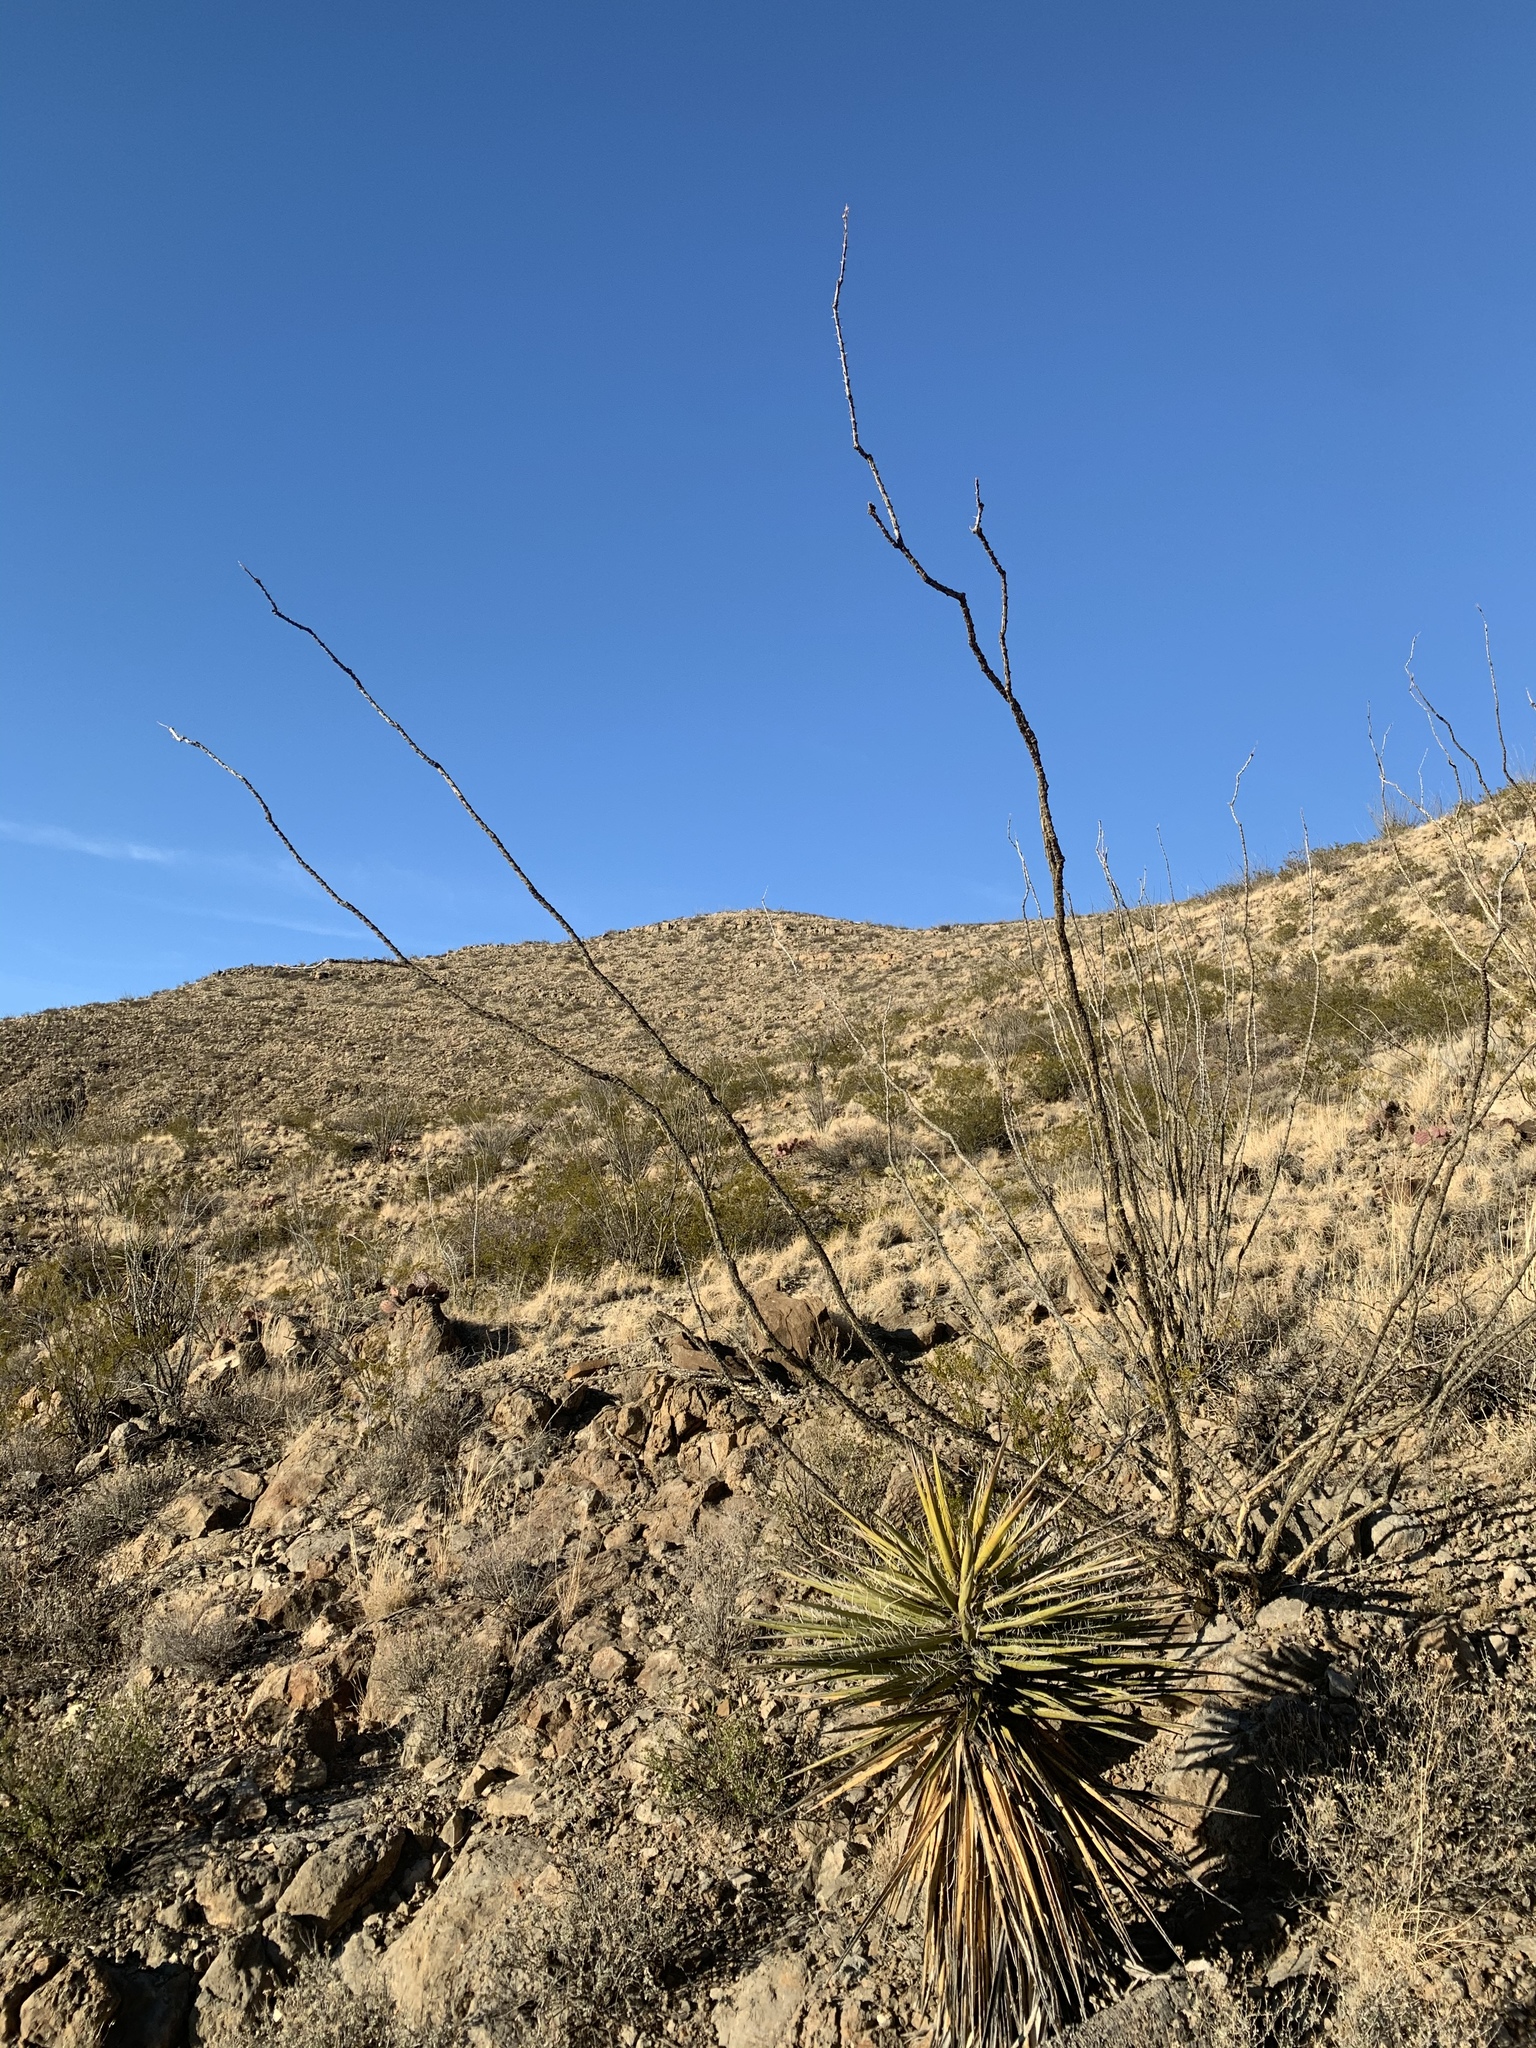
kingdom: Plantae
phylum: Tracheophyta
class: Magnoliopsida
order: Ericales
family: Fouquieriaceae
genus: Fouquieria
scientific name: Fouquieria splendens
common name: Vine-cactus
